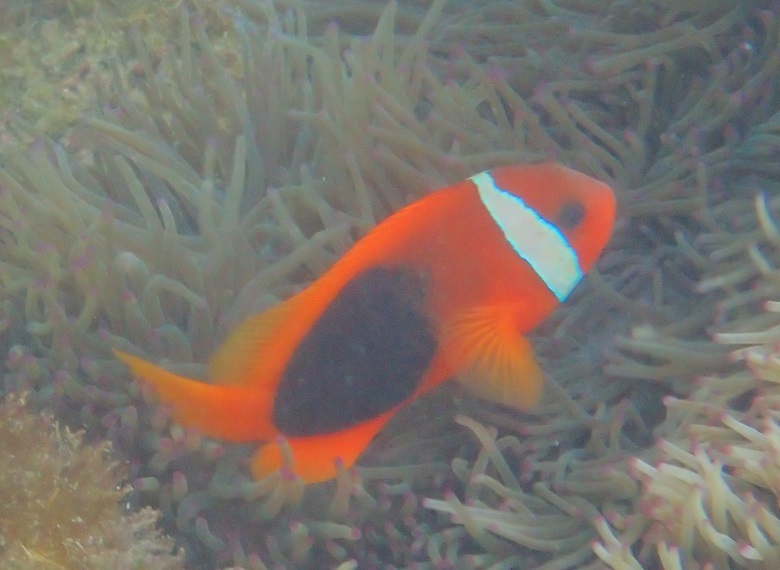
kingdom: Animalia
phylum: Chordata
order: Perciformes
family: Pomacentridae
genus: Amphiprion
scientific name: Amphiprion melanopus
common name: Black anemonefish
